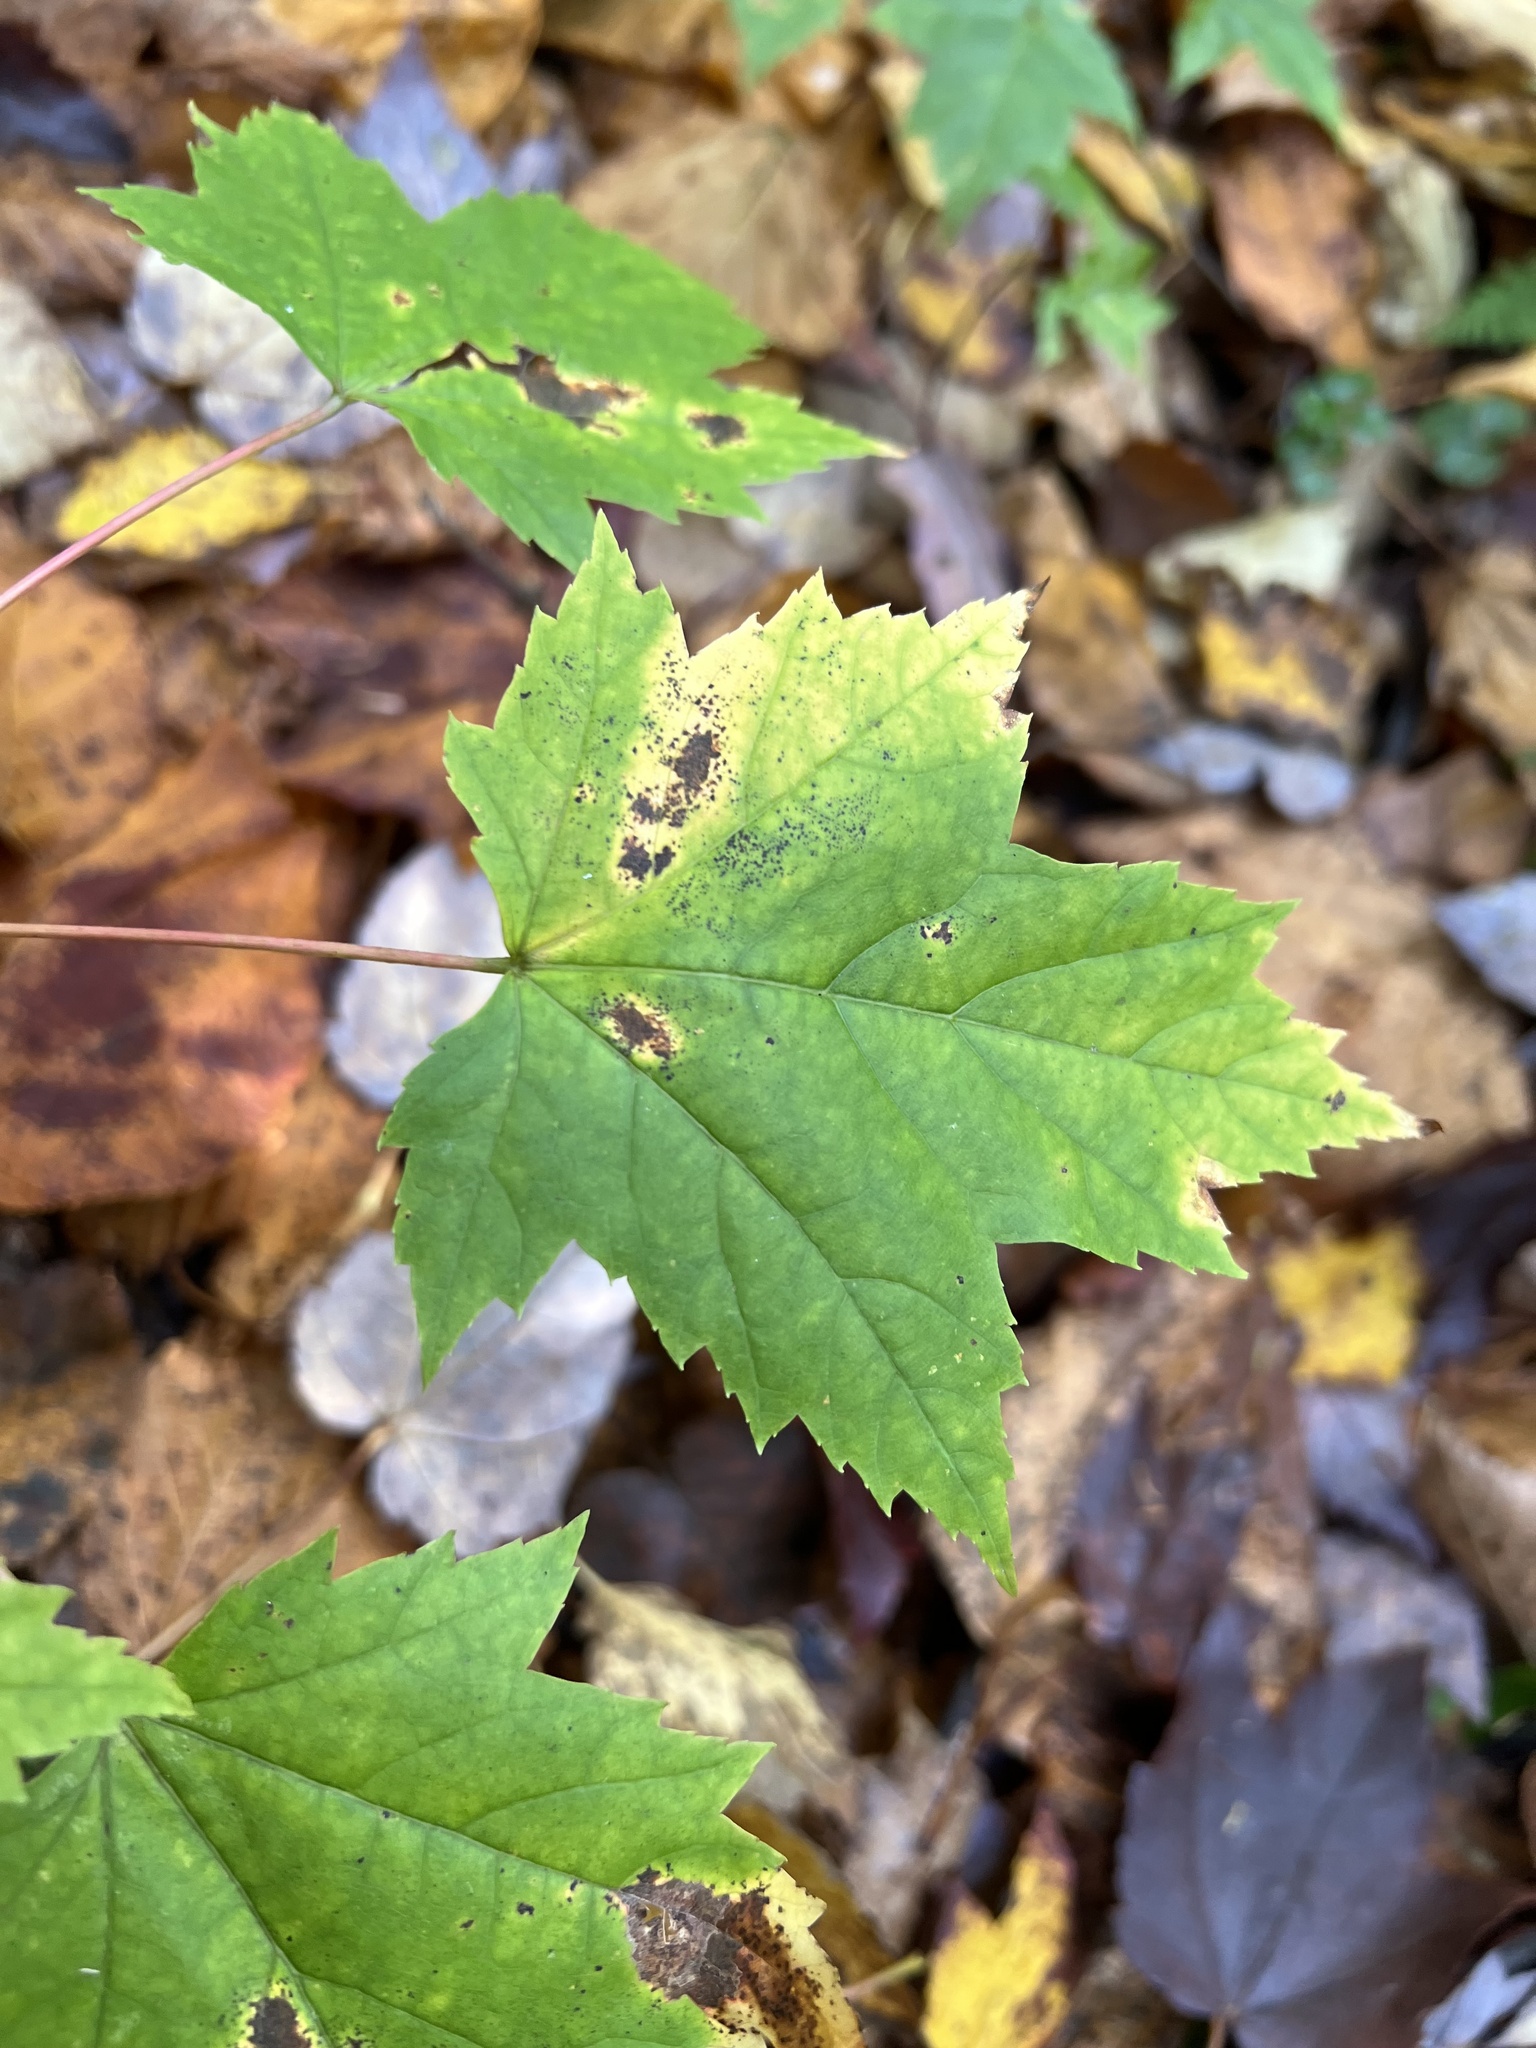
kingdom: Plantae
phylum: Tracheophyta
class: Magnoliopsida
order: Sapindales
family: Sapindaceae
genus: Acer
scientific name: Acer rubrum
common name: Red maple
